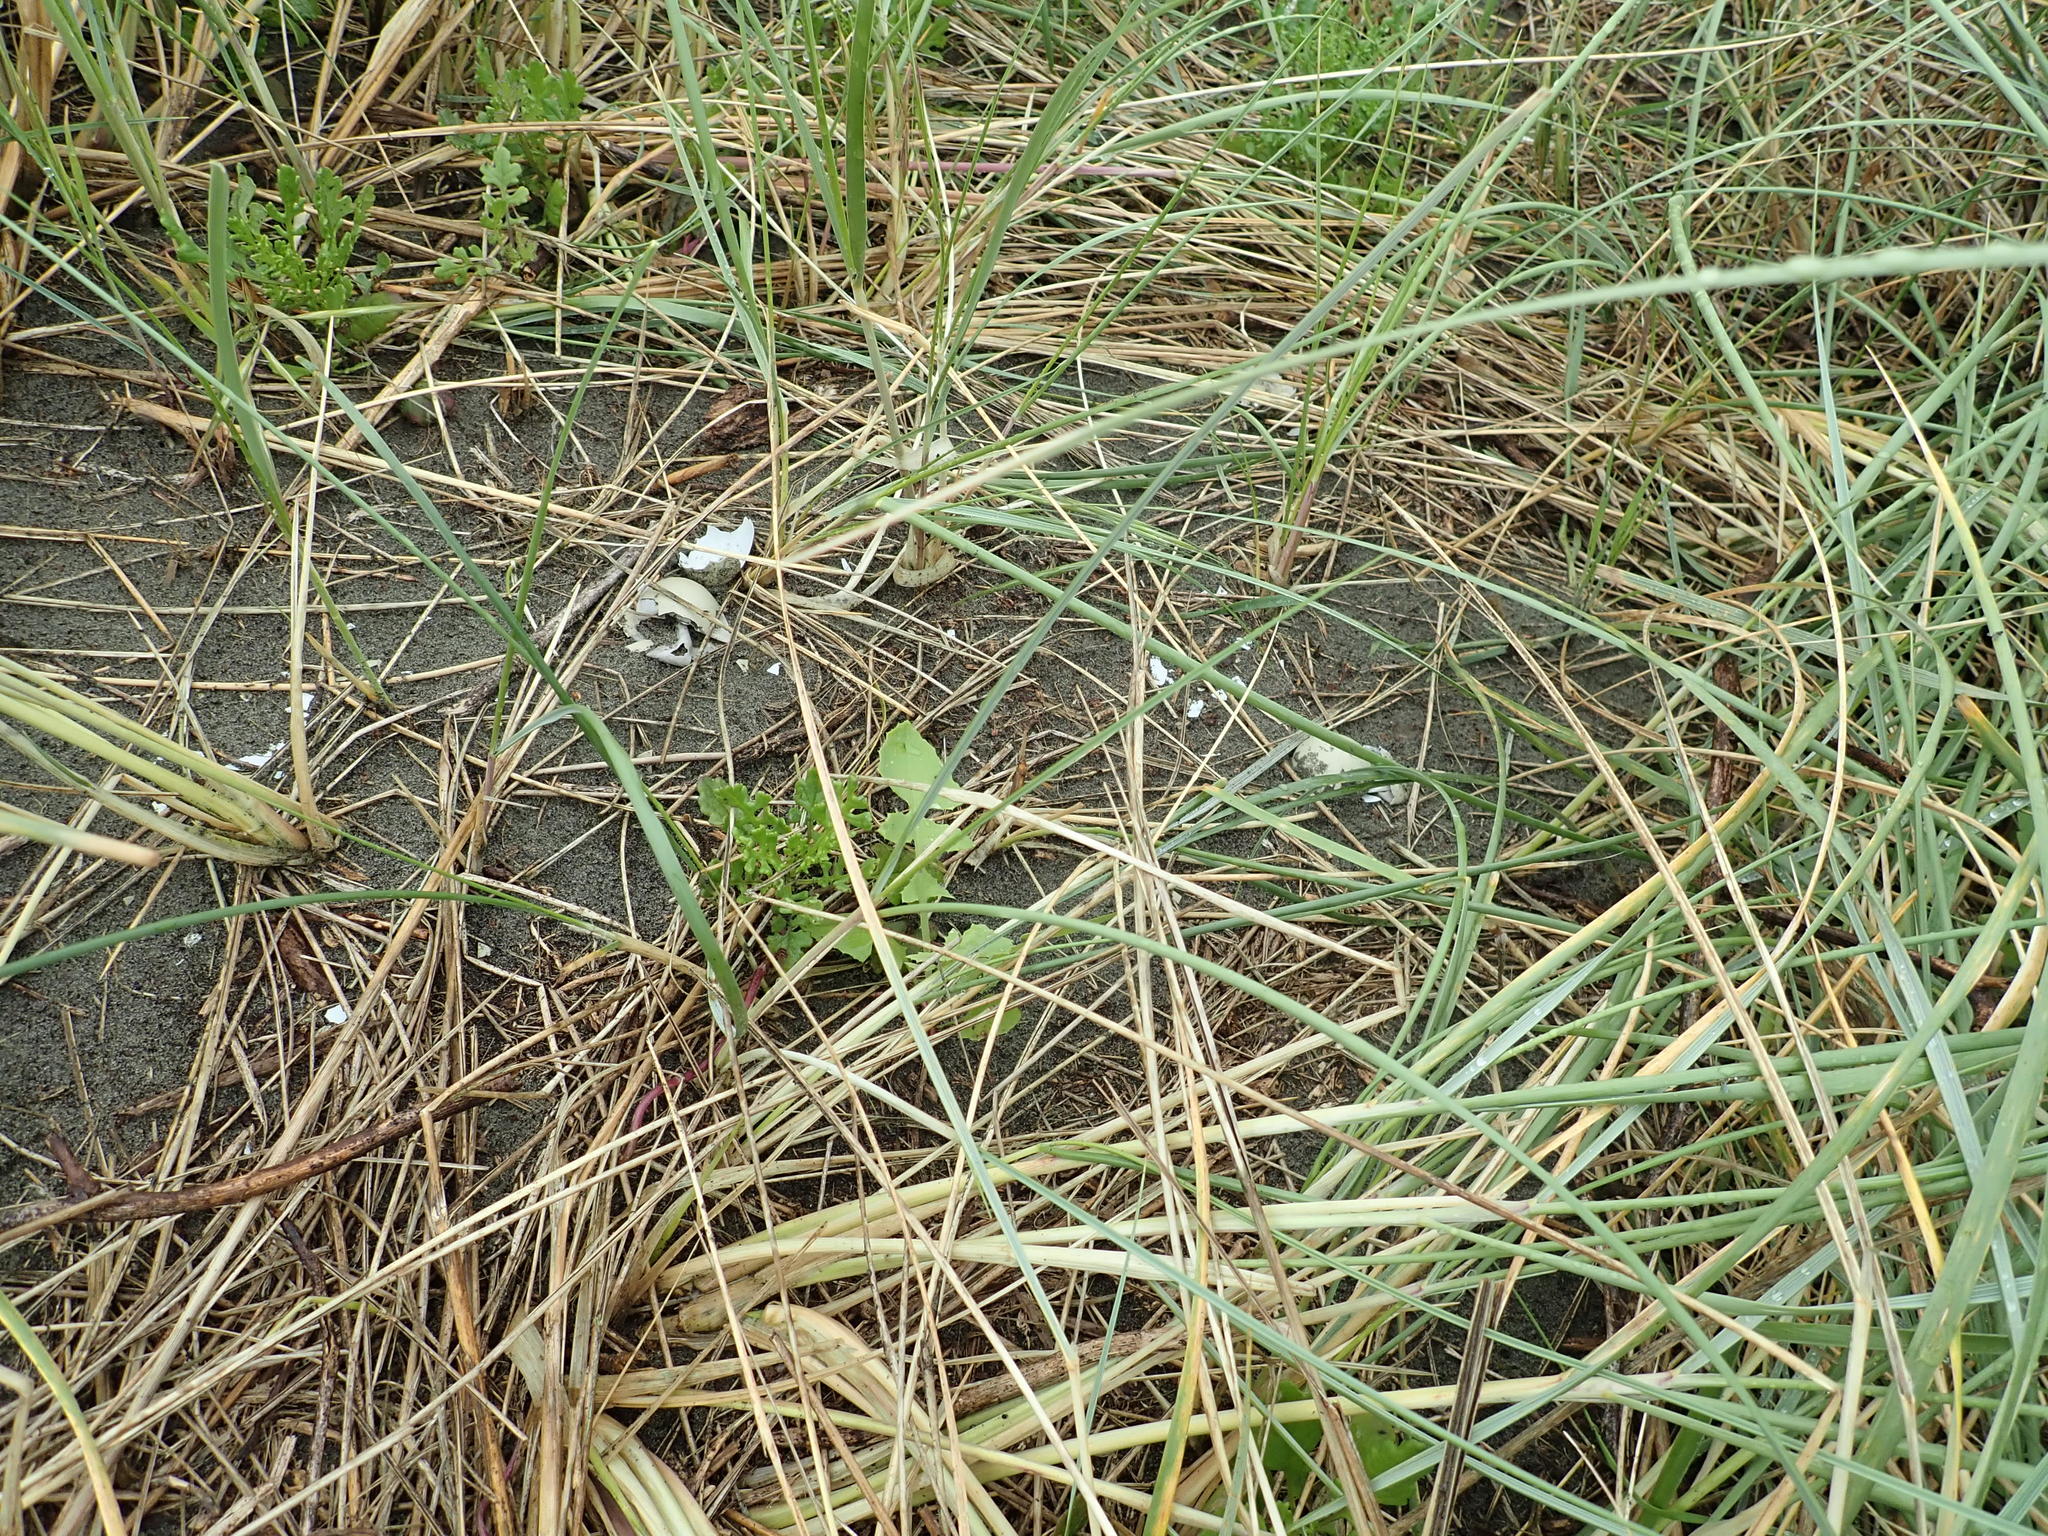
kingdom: Animalia
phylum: Chordata
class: Aves
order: Galliformes
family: Phasianidae
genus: Phasianus
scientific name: Phasianus colchicus
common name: Common pheasant
